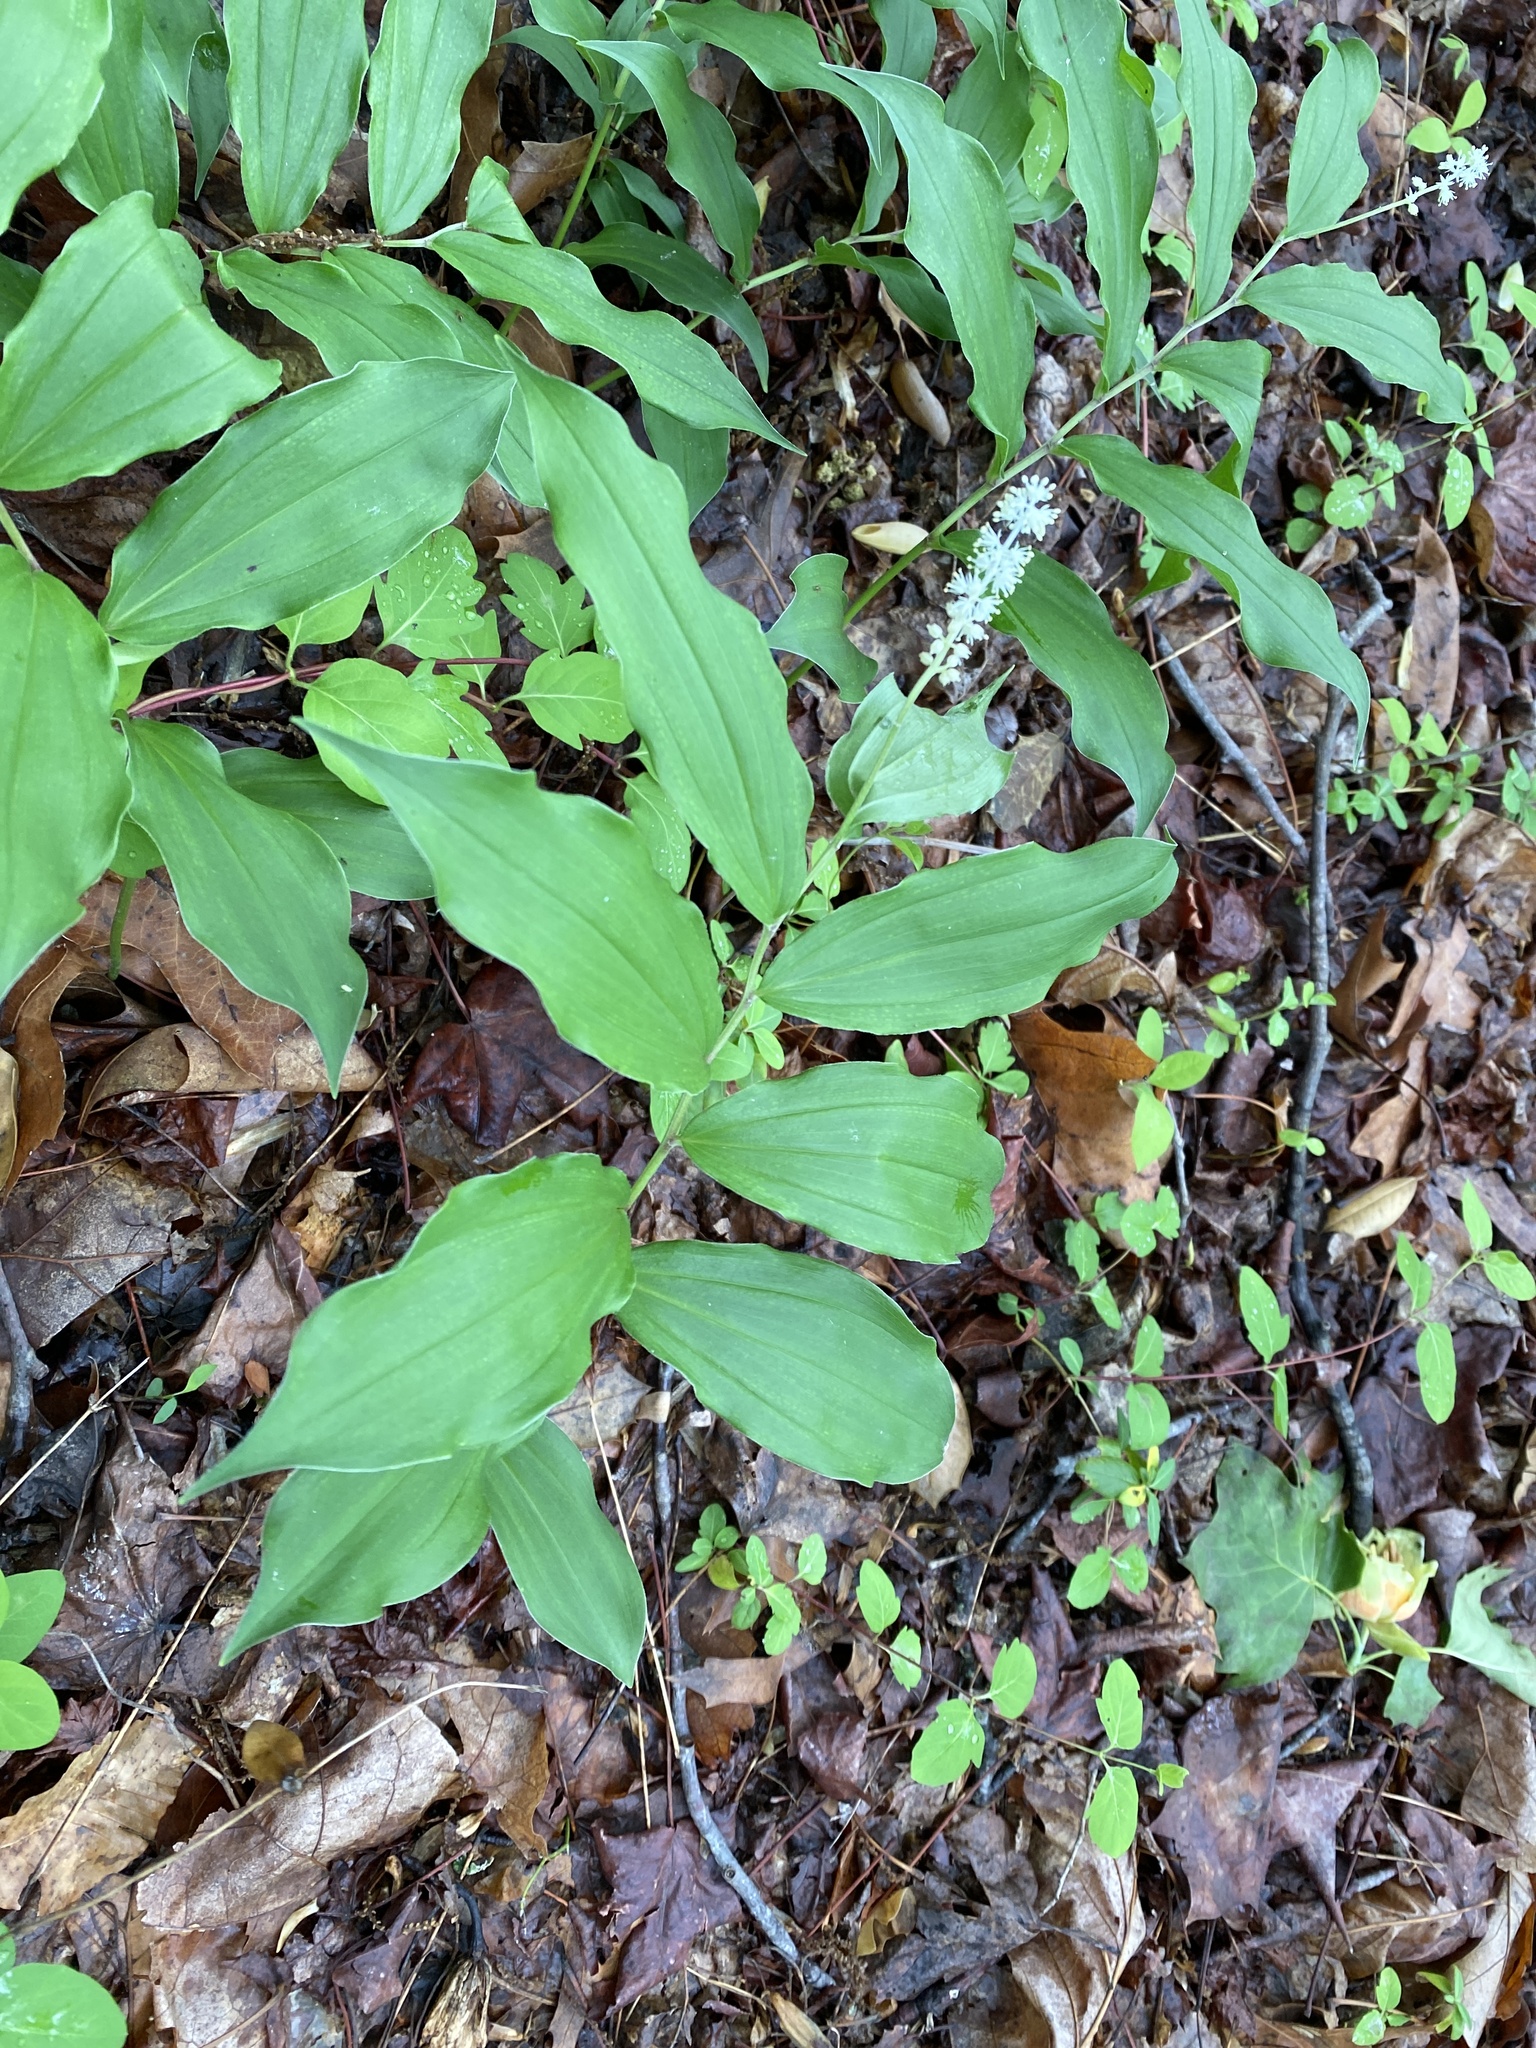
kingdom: Plantae
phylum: Tracheophyta
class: Liliopsida
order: Asparagales
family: Asparagaceae
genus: Maianthemum
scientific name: Maianthemum racemosum
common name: False spikenard
